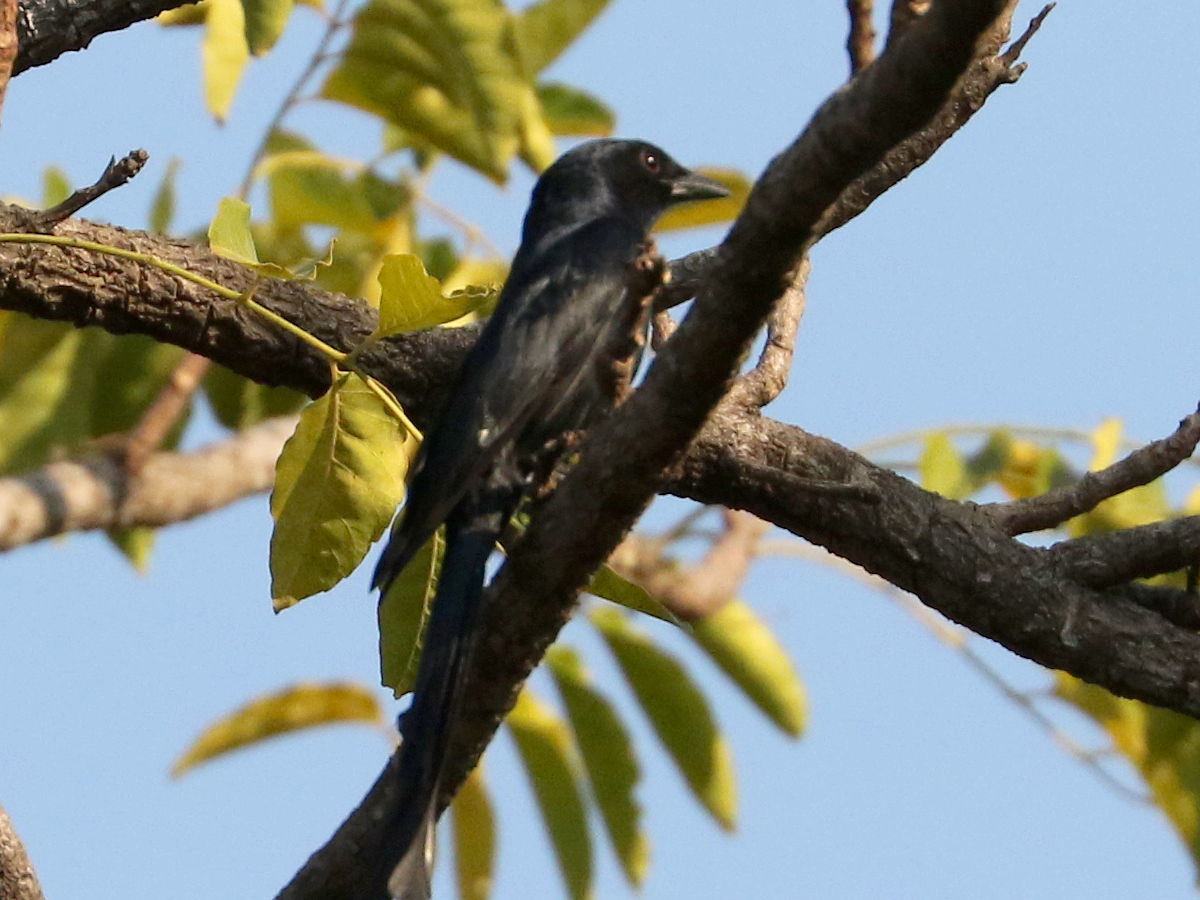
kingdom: Animalia
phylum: Chordata
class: Aves
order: Passeriformes
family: Dicruridae
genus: Dicrurus
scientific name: Dicrurus macrocercus
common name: Black drongo
